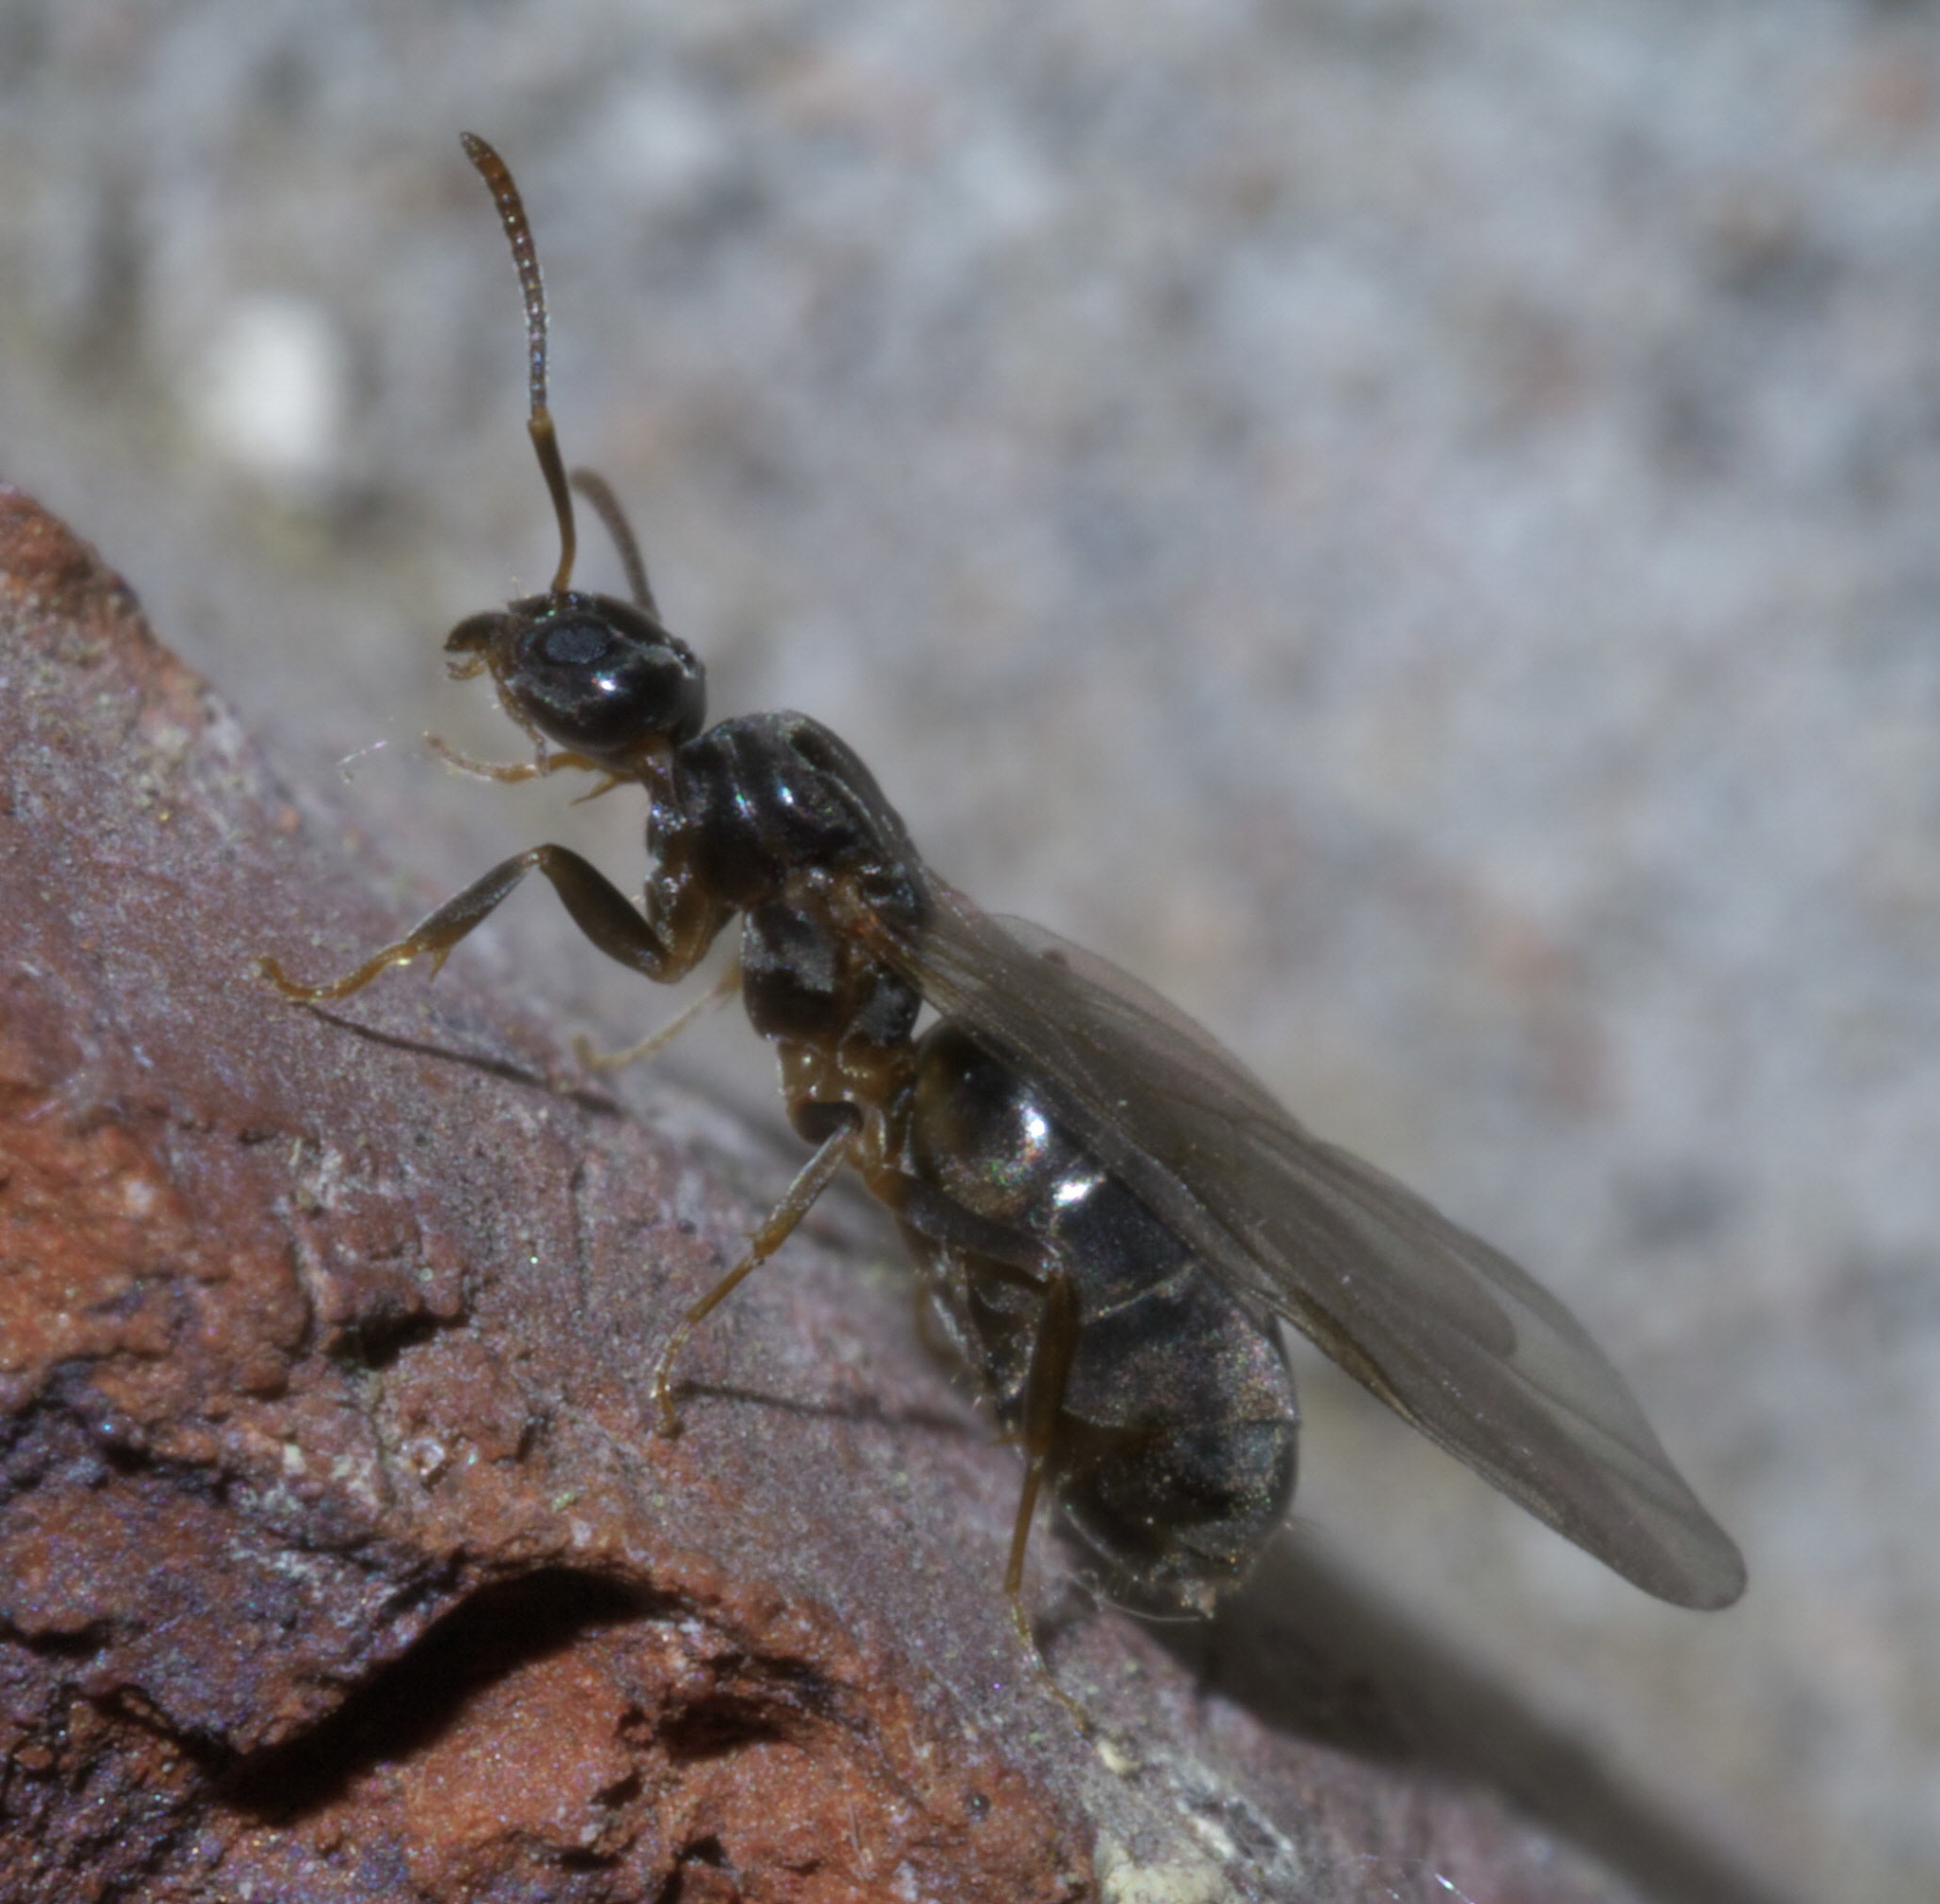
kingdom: Animalia
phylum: Arthropoda
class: Insecta
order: Hymenoptera
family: Formicidae
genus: Tapinoma
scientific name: Tapinoma sessile
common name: Odorous house ant
